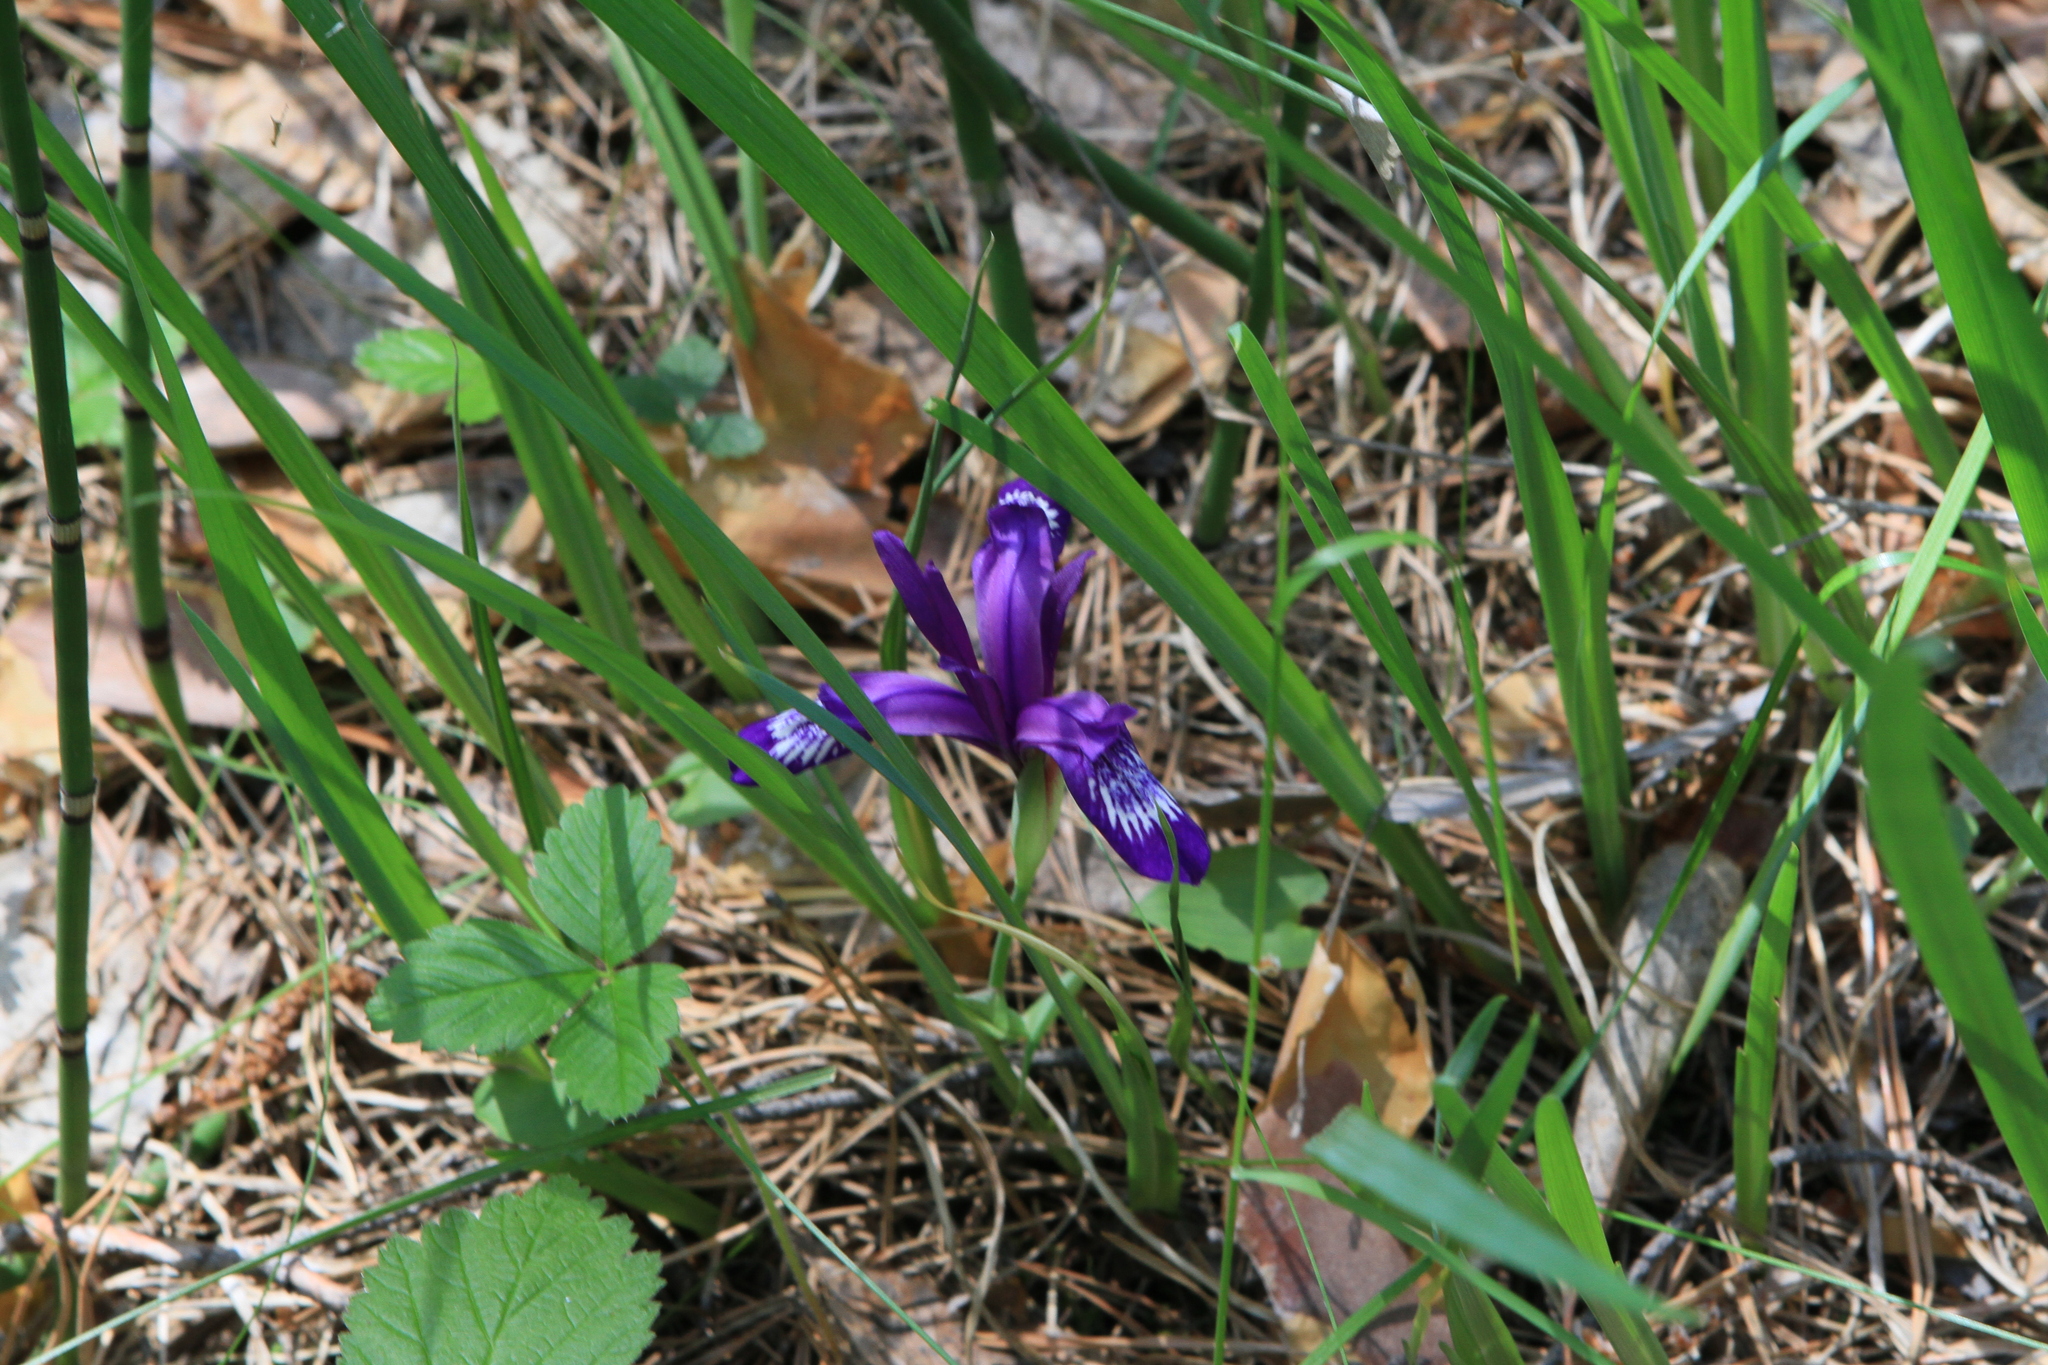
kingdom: Plantae
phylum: Tracheophyta
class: Liliopsida
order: Asparagales
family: Iridaceae
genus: Iris
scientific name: Iris ruthenica
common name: Purple-bract iris
